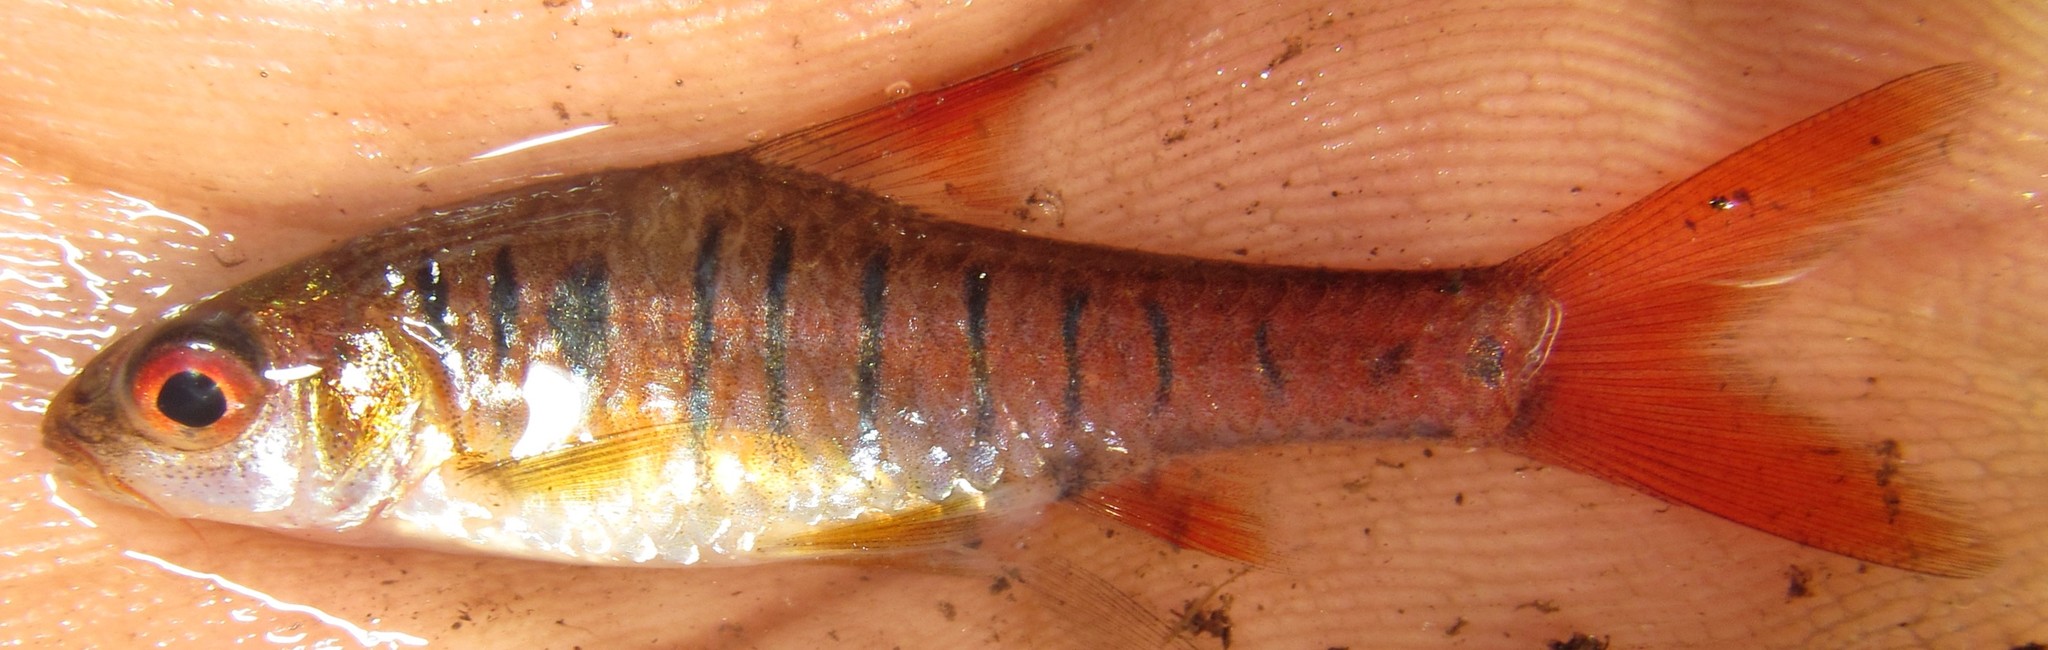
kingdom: Animalia
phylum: Chordata
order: Cypriniformes
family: Cyprinidae
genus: Enteromius
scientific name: Enteromius fasciolatus
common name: Red barb
